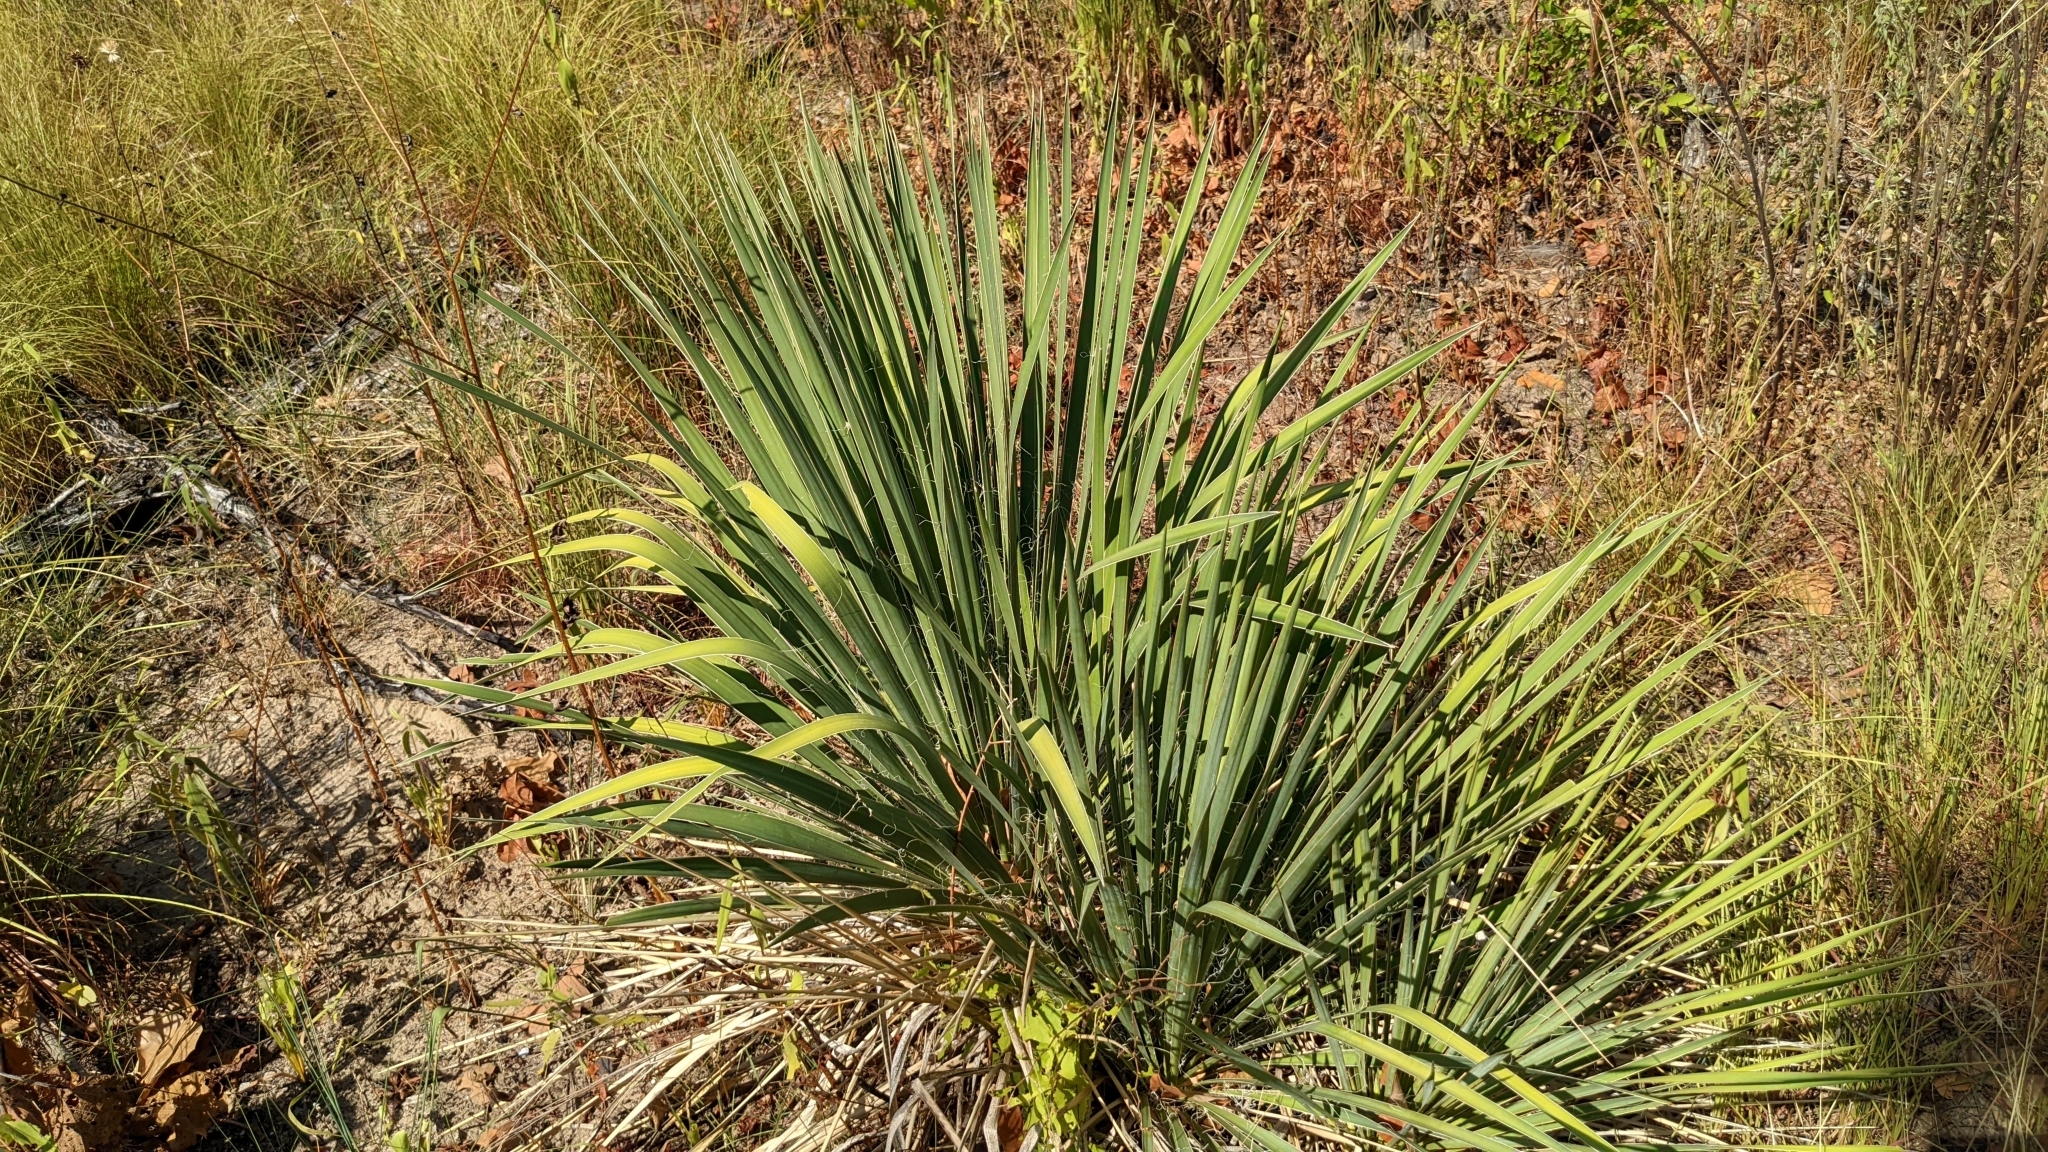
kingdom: Plantae
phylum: Tracheophyta
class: Liliopsida
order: Asparagales
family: Asparagaceae
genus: Yucca
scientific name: Yucca flaccida
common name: Adam's-needle
